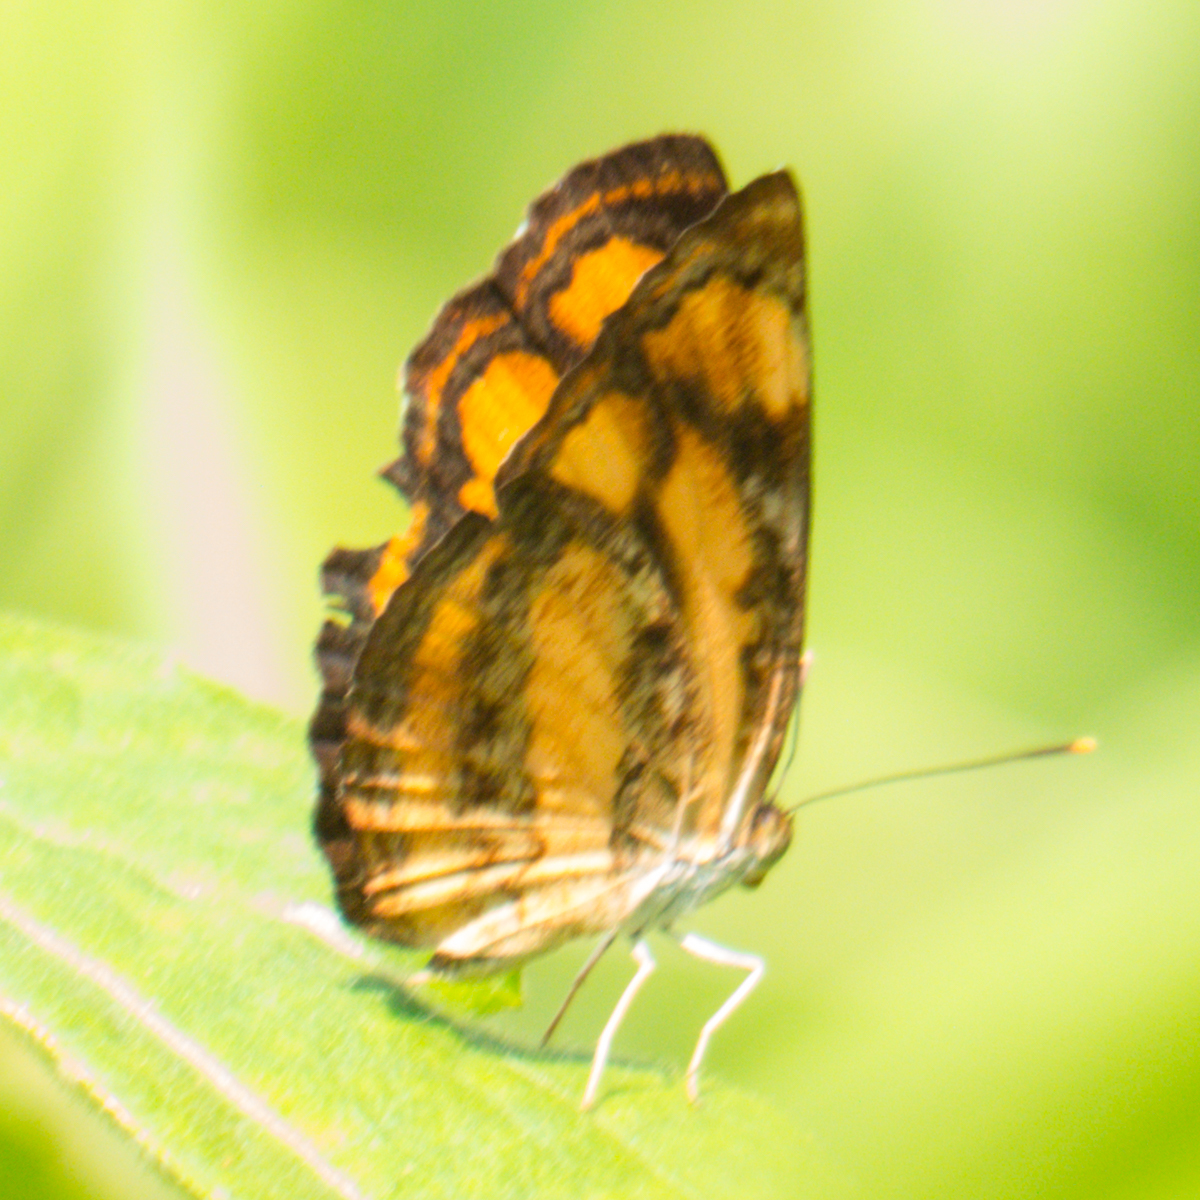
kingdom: Animalia
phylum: Arthropoda
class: Insecta
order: Lepidoptera
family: Nymphalidae
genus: Pantoporia
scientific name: Pantoporia hordonia
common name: Common lascar
